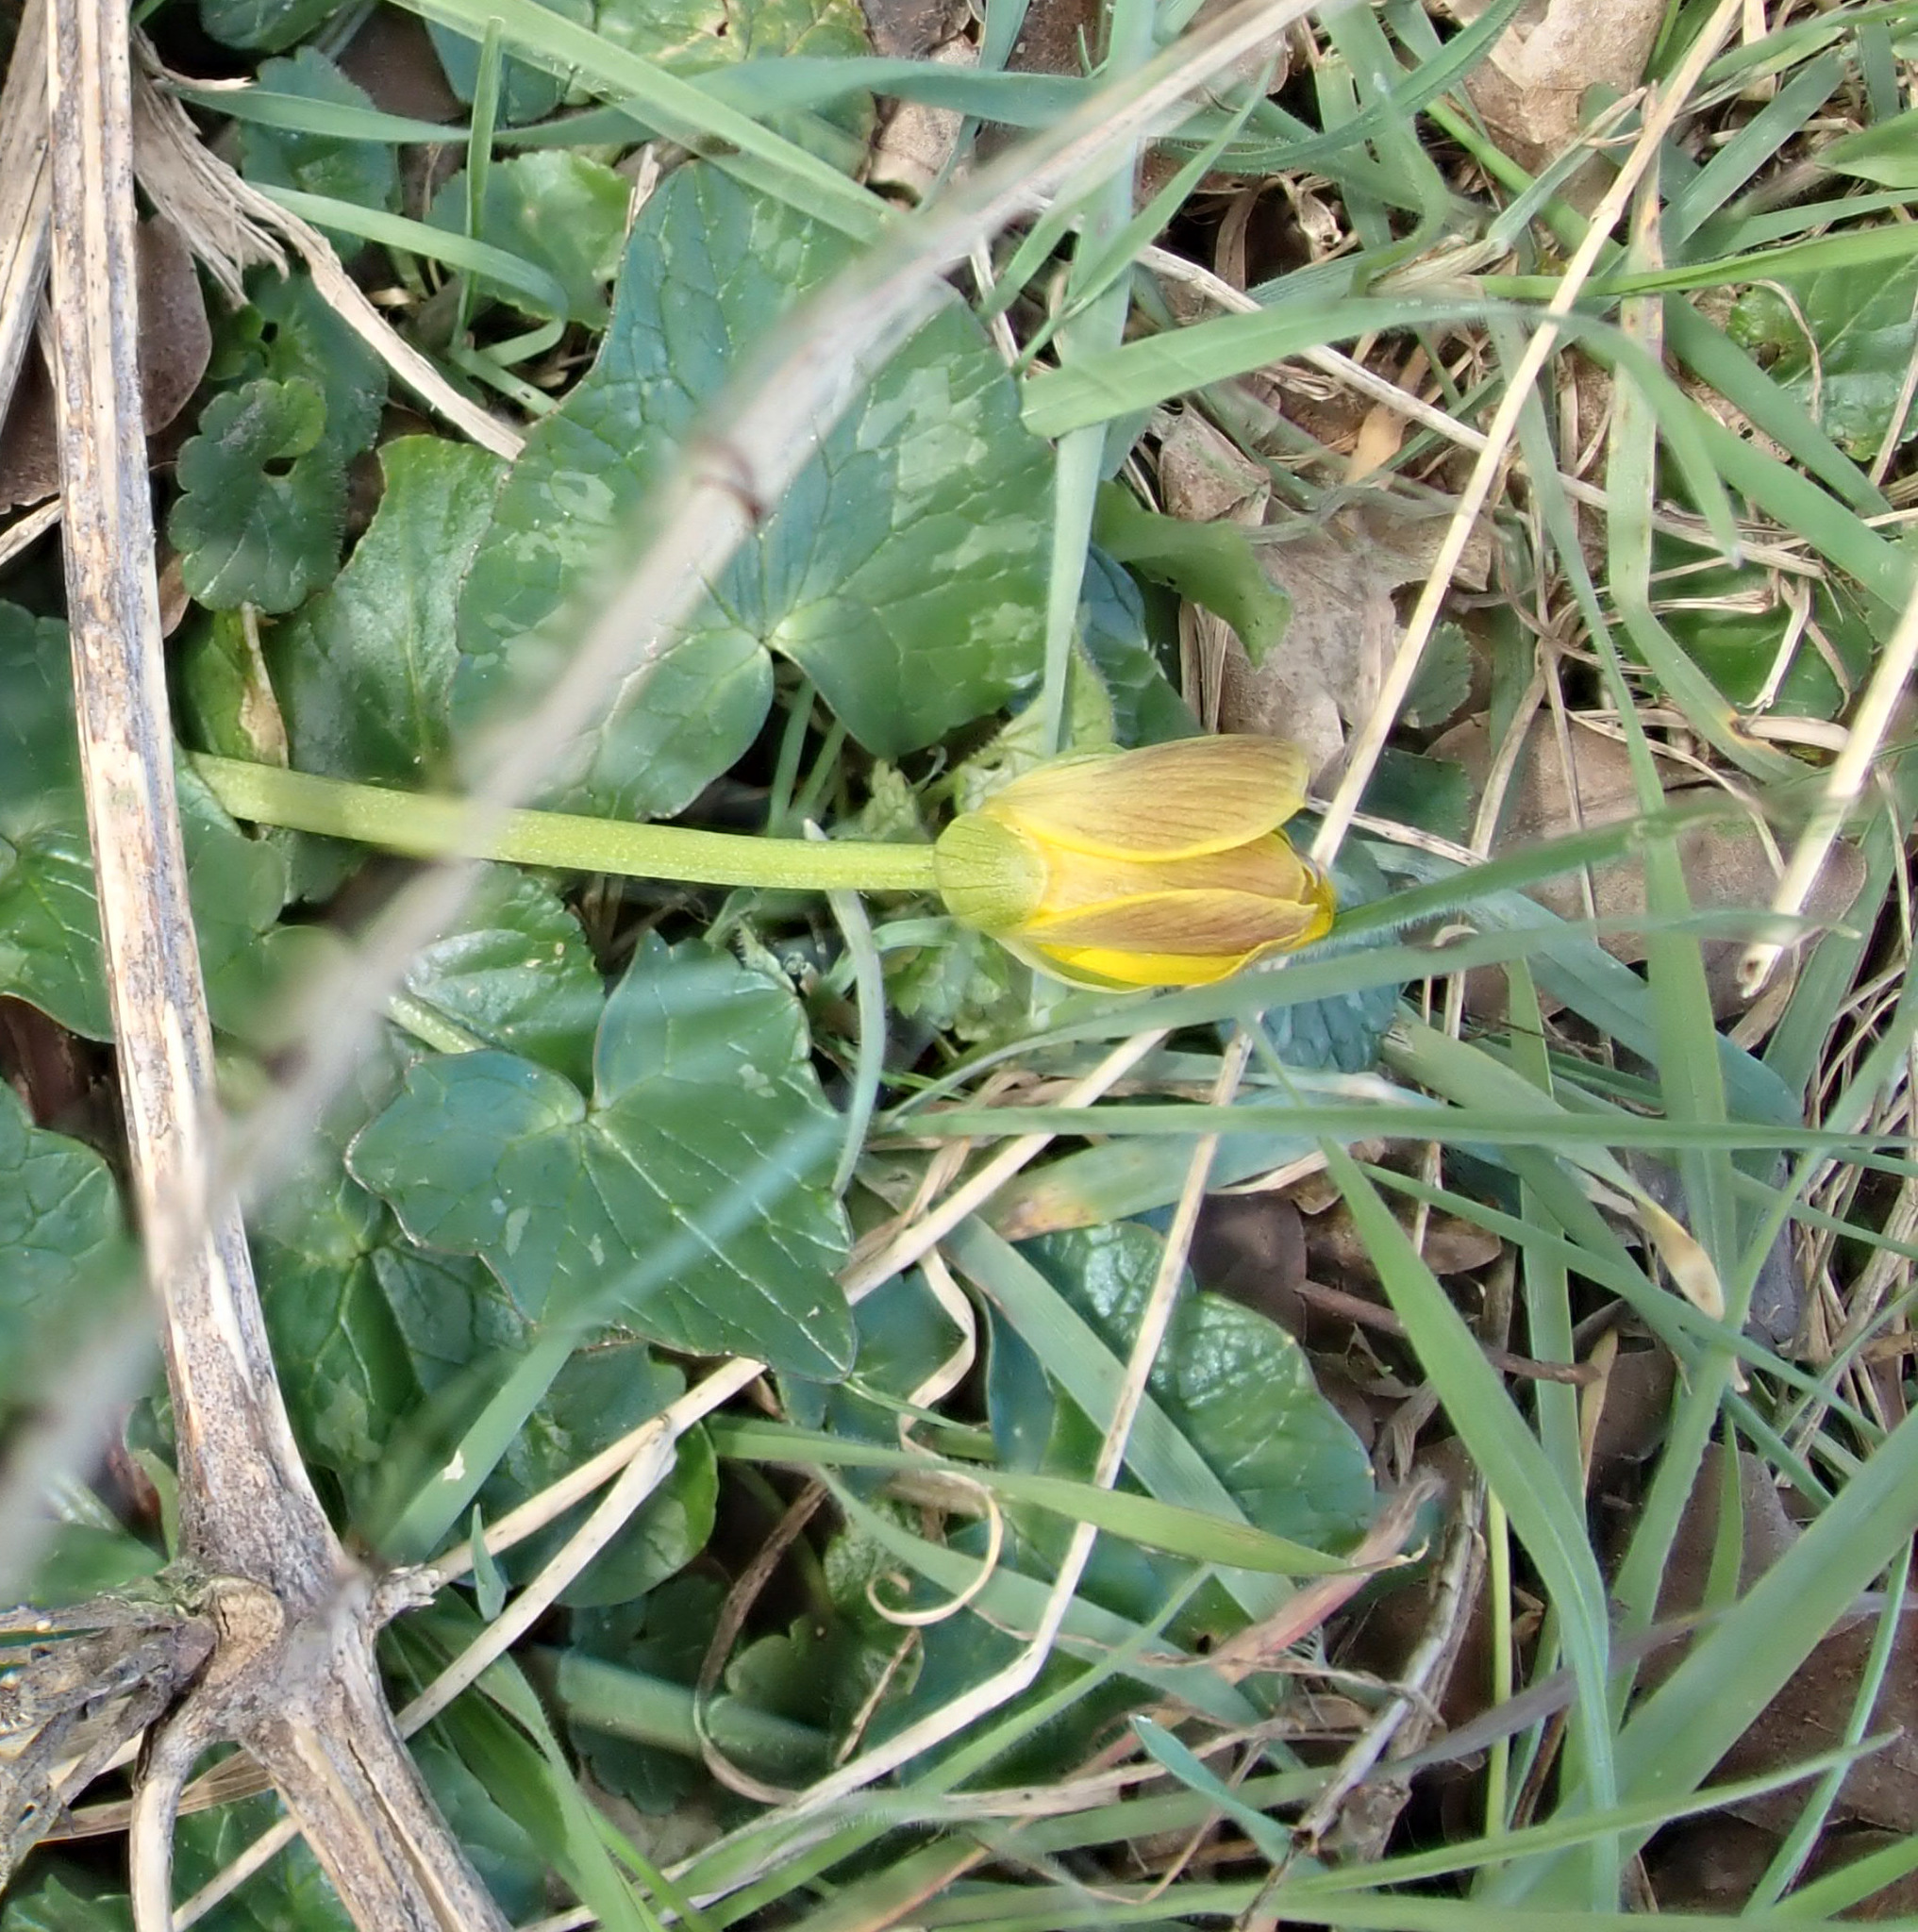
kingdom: Plantae
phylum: Tracheophyta
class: Magnoliopsida
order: Ranunculales
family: Ranunculaceae
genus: Ficaria
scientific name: Ficaria verna
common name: Lesser celandine
